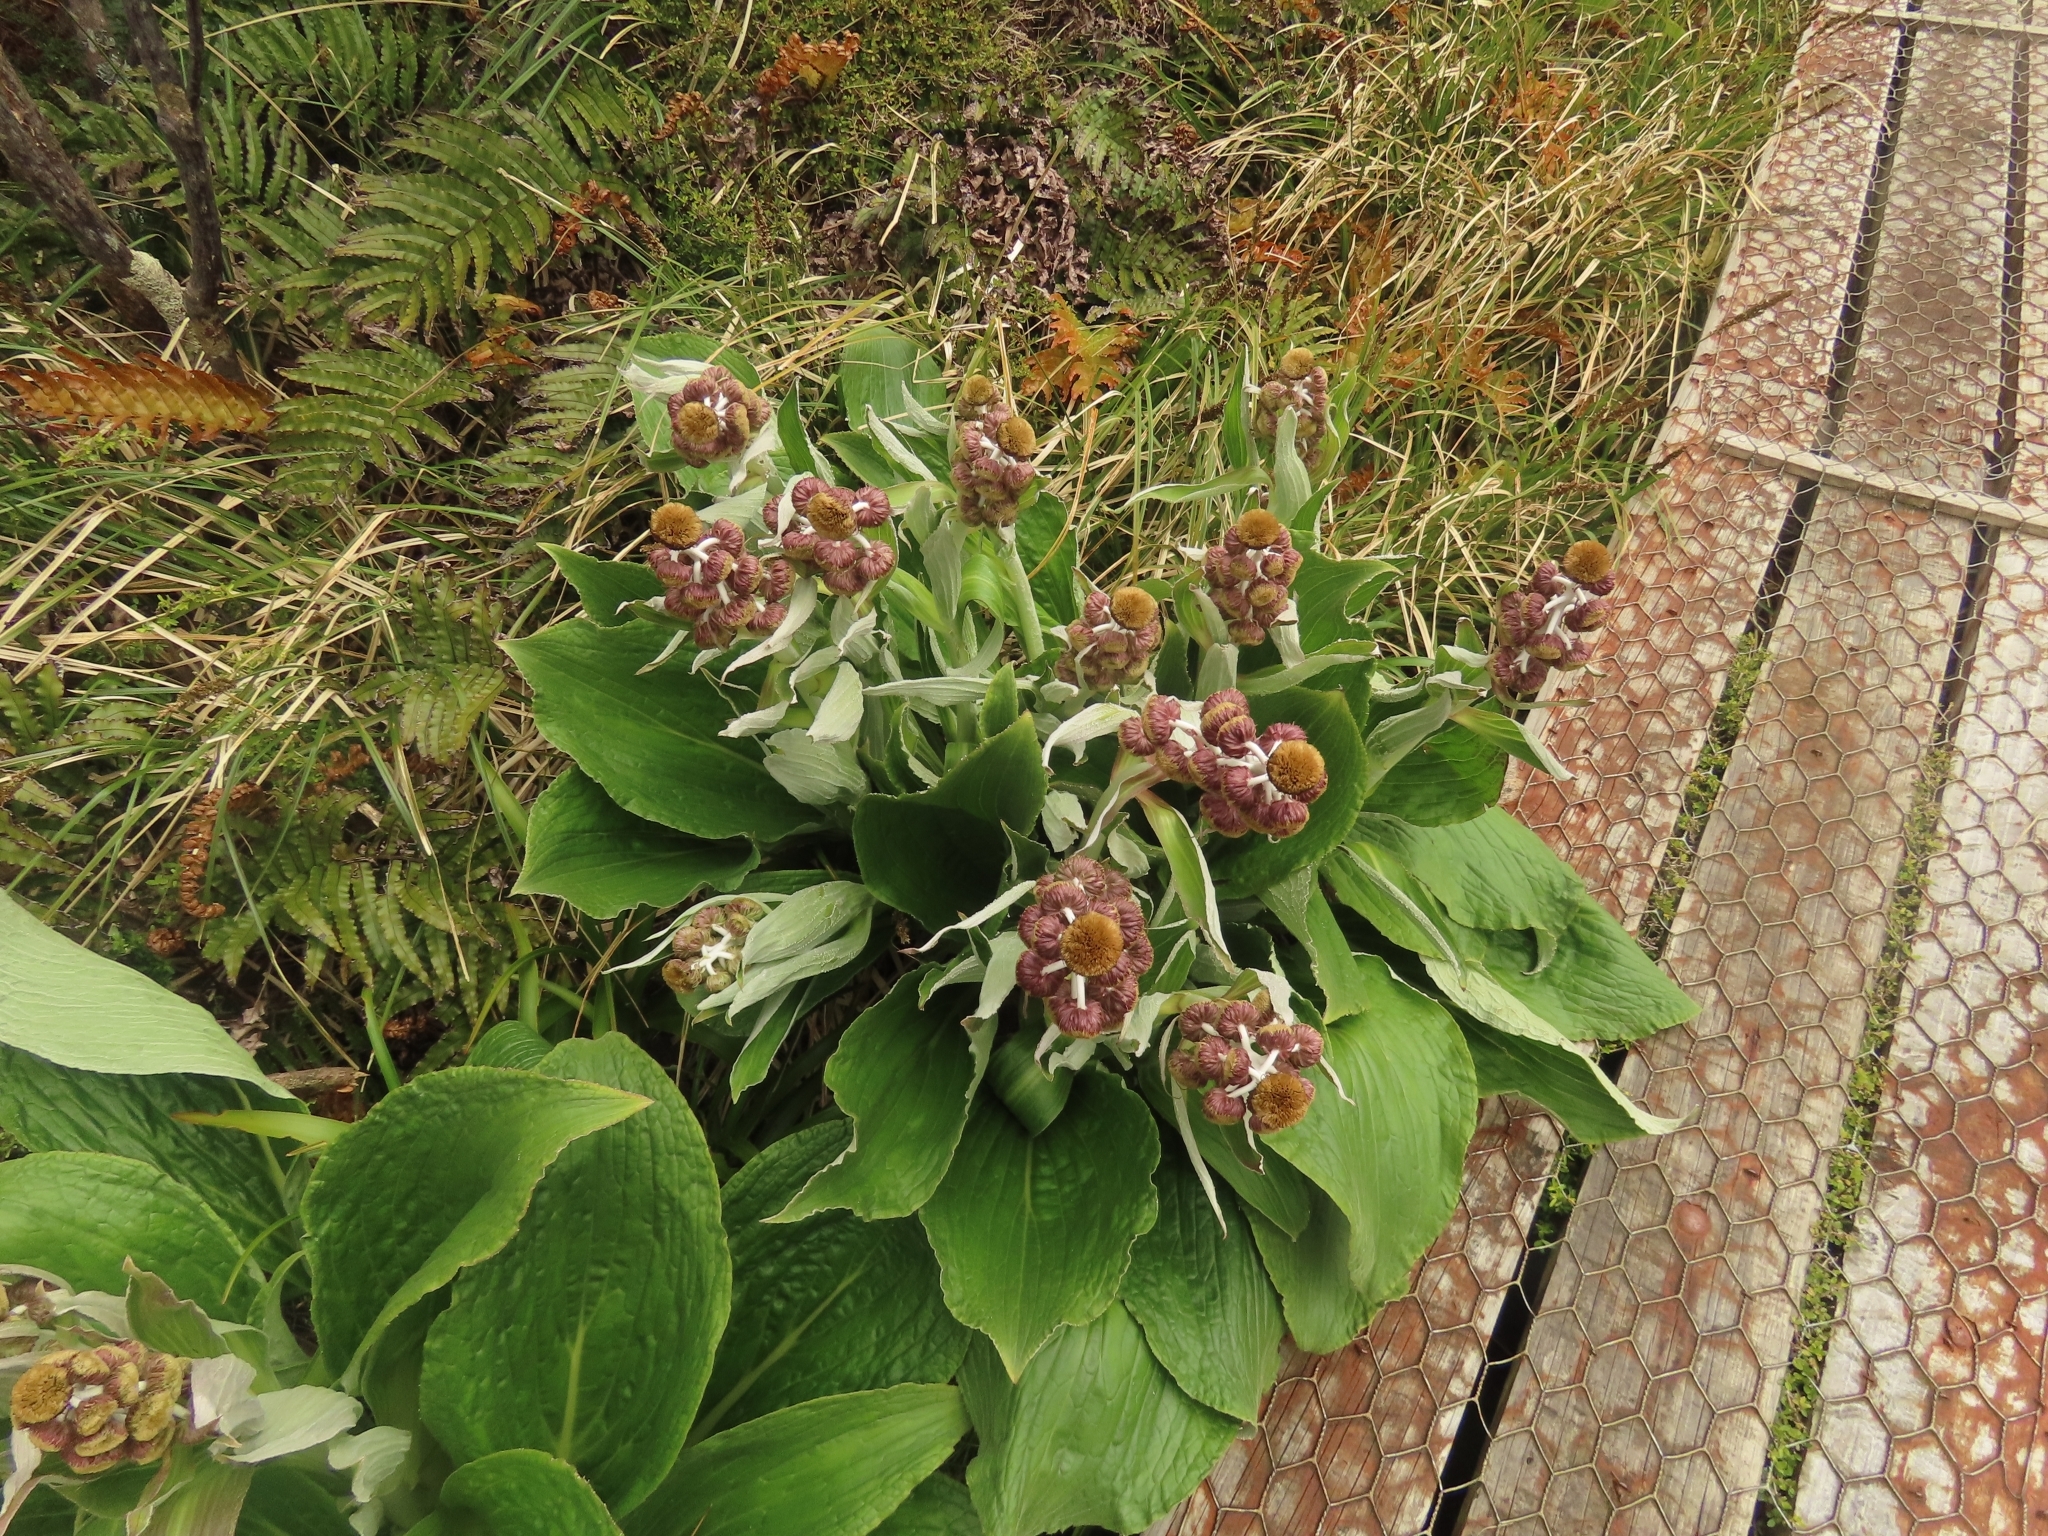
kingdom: Plantae
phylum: Tracheophyta
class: Magnoliopsida
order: Asterales
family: Asteraceae
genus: Pleurophyllum
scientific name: Pleurophyllum hookeri
